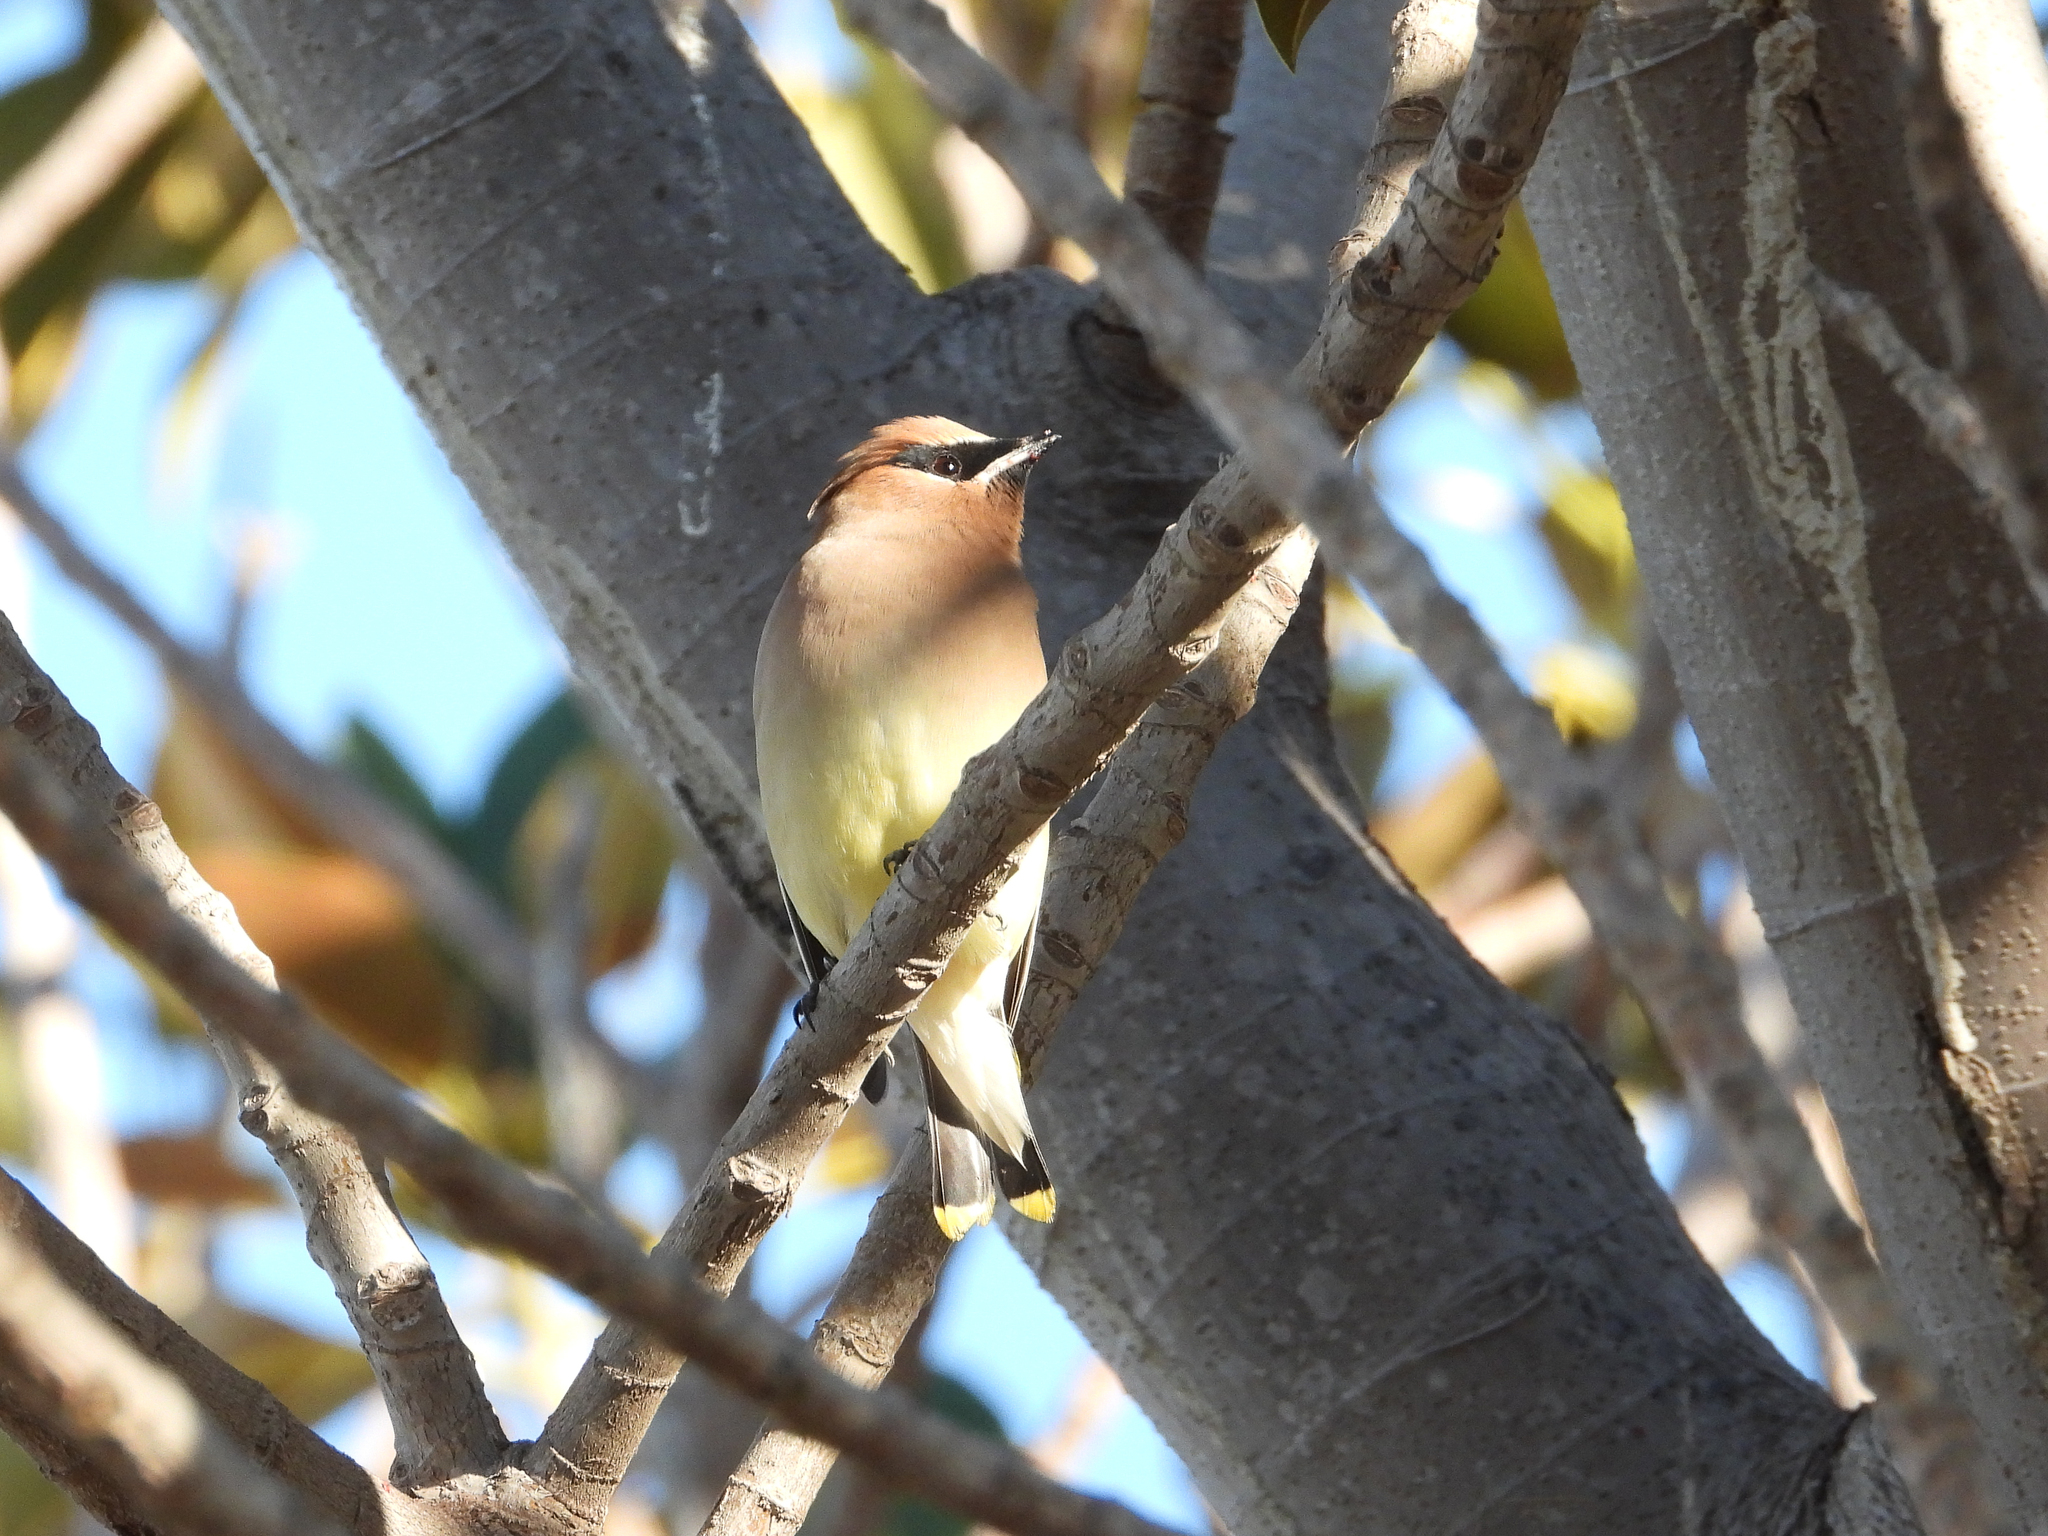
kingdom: Animalia
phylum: Chordata
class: Aves
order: Passeriformes
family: Bombycillidae
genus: Bombycilla
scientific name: Bombycilla cedrorum
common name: Cedar waxwing
